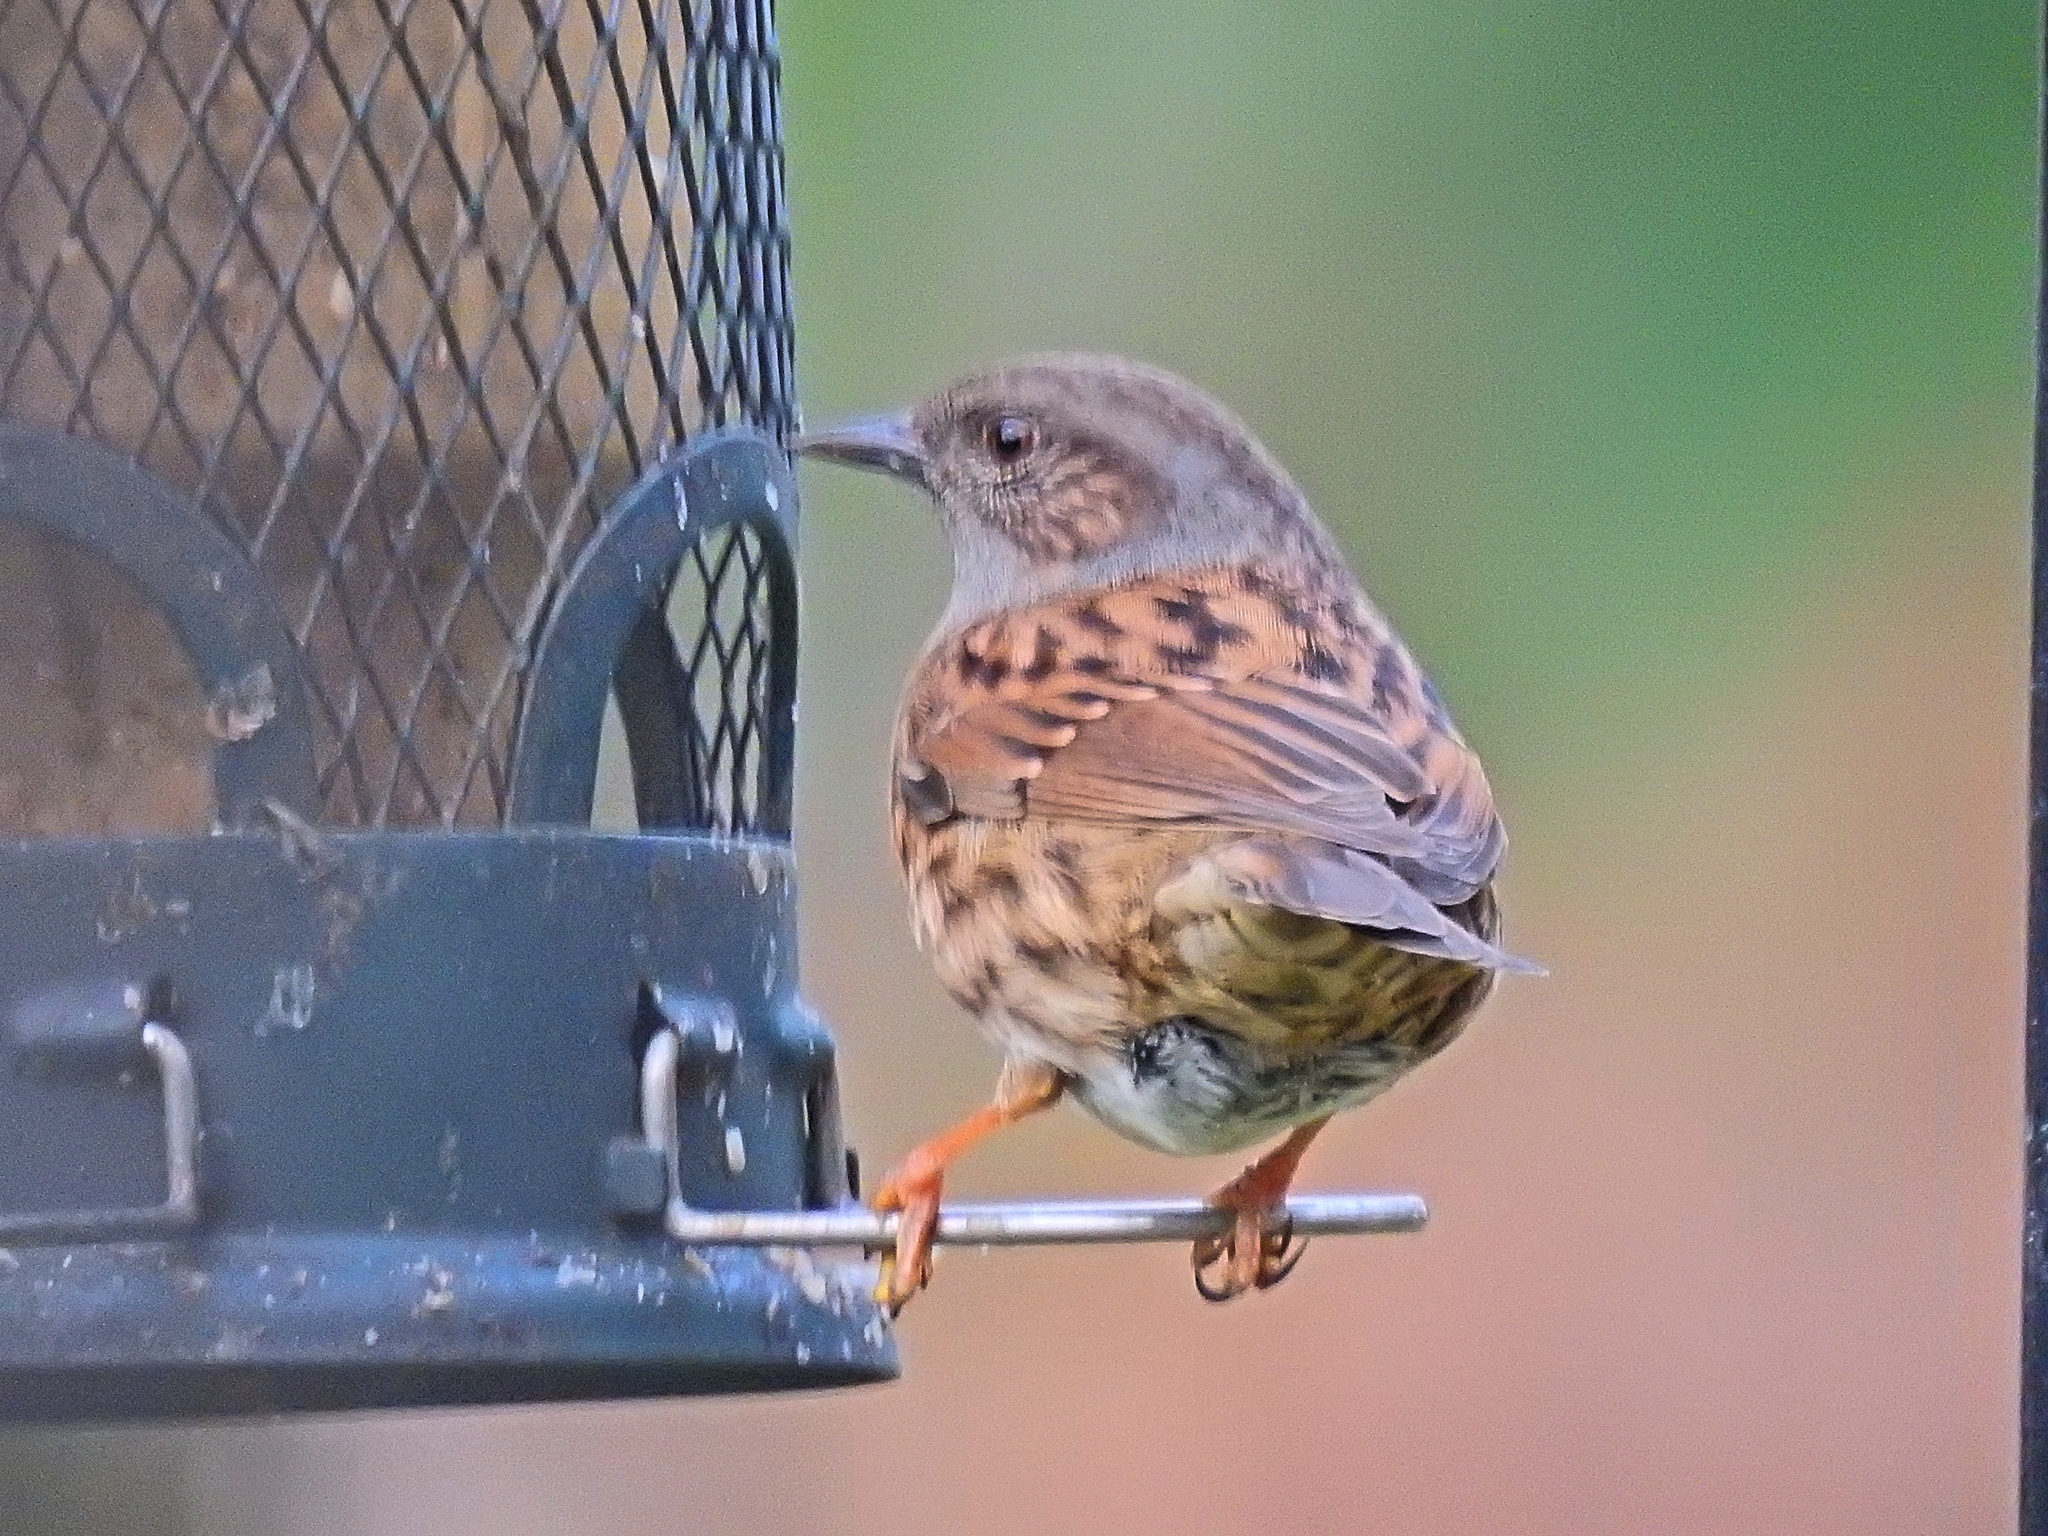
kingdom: Animalia
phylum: Chordata
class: Aves
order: Passeriformes
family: Prunellidae
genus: Prunella
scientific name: Prunella modularis
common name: Dunnock
